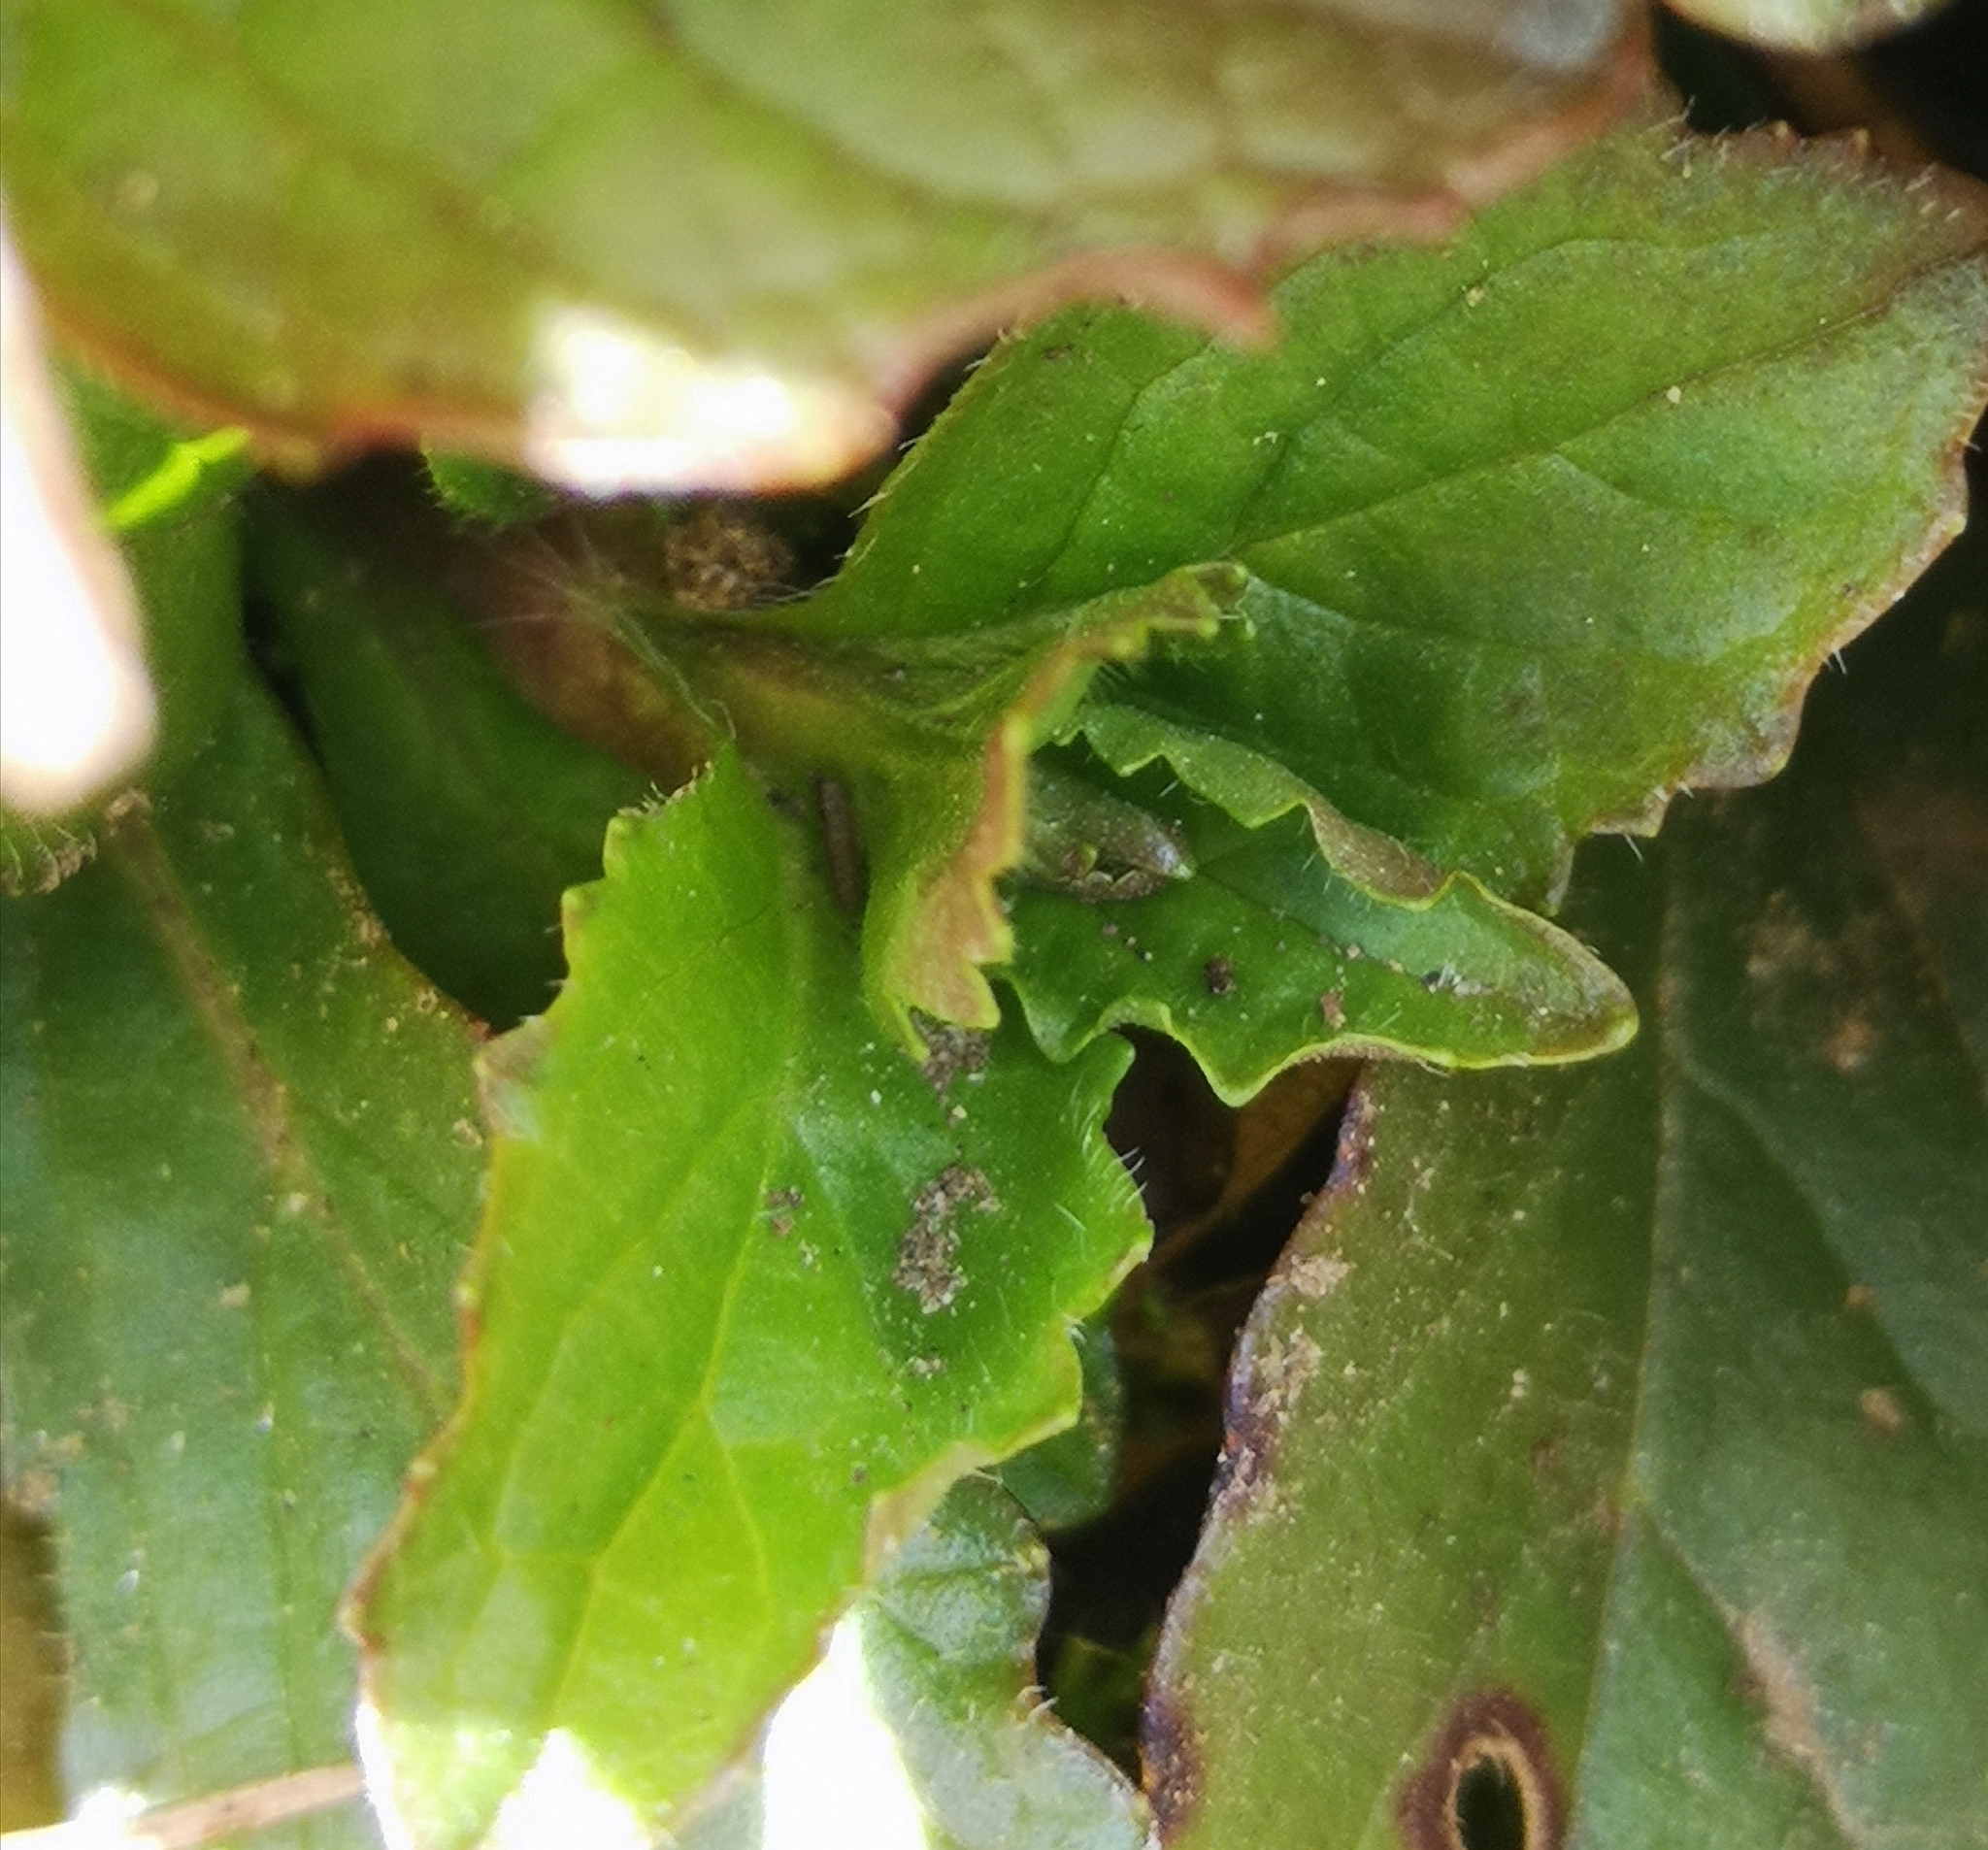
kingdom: Plantae
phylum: Tracheophyta
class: Magnoliopsida
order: Lamiales
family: Lamiaceae
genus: Ajuga
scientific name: Ajuga reptans
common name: Bugle
